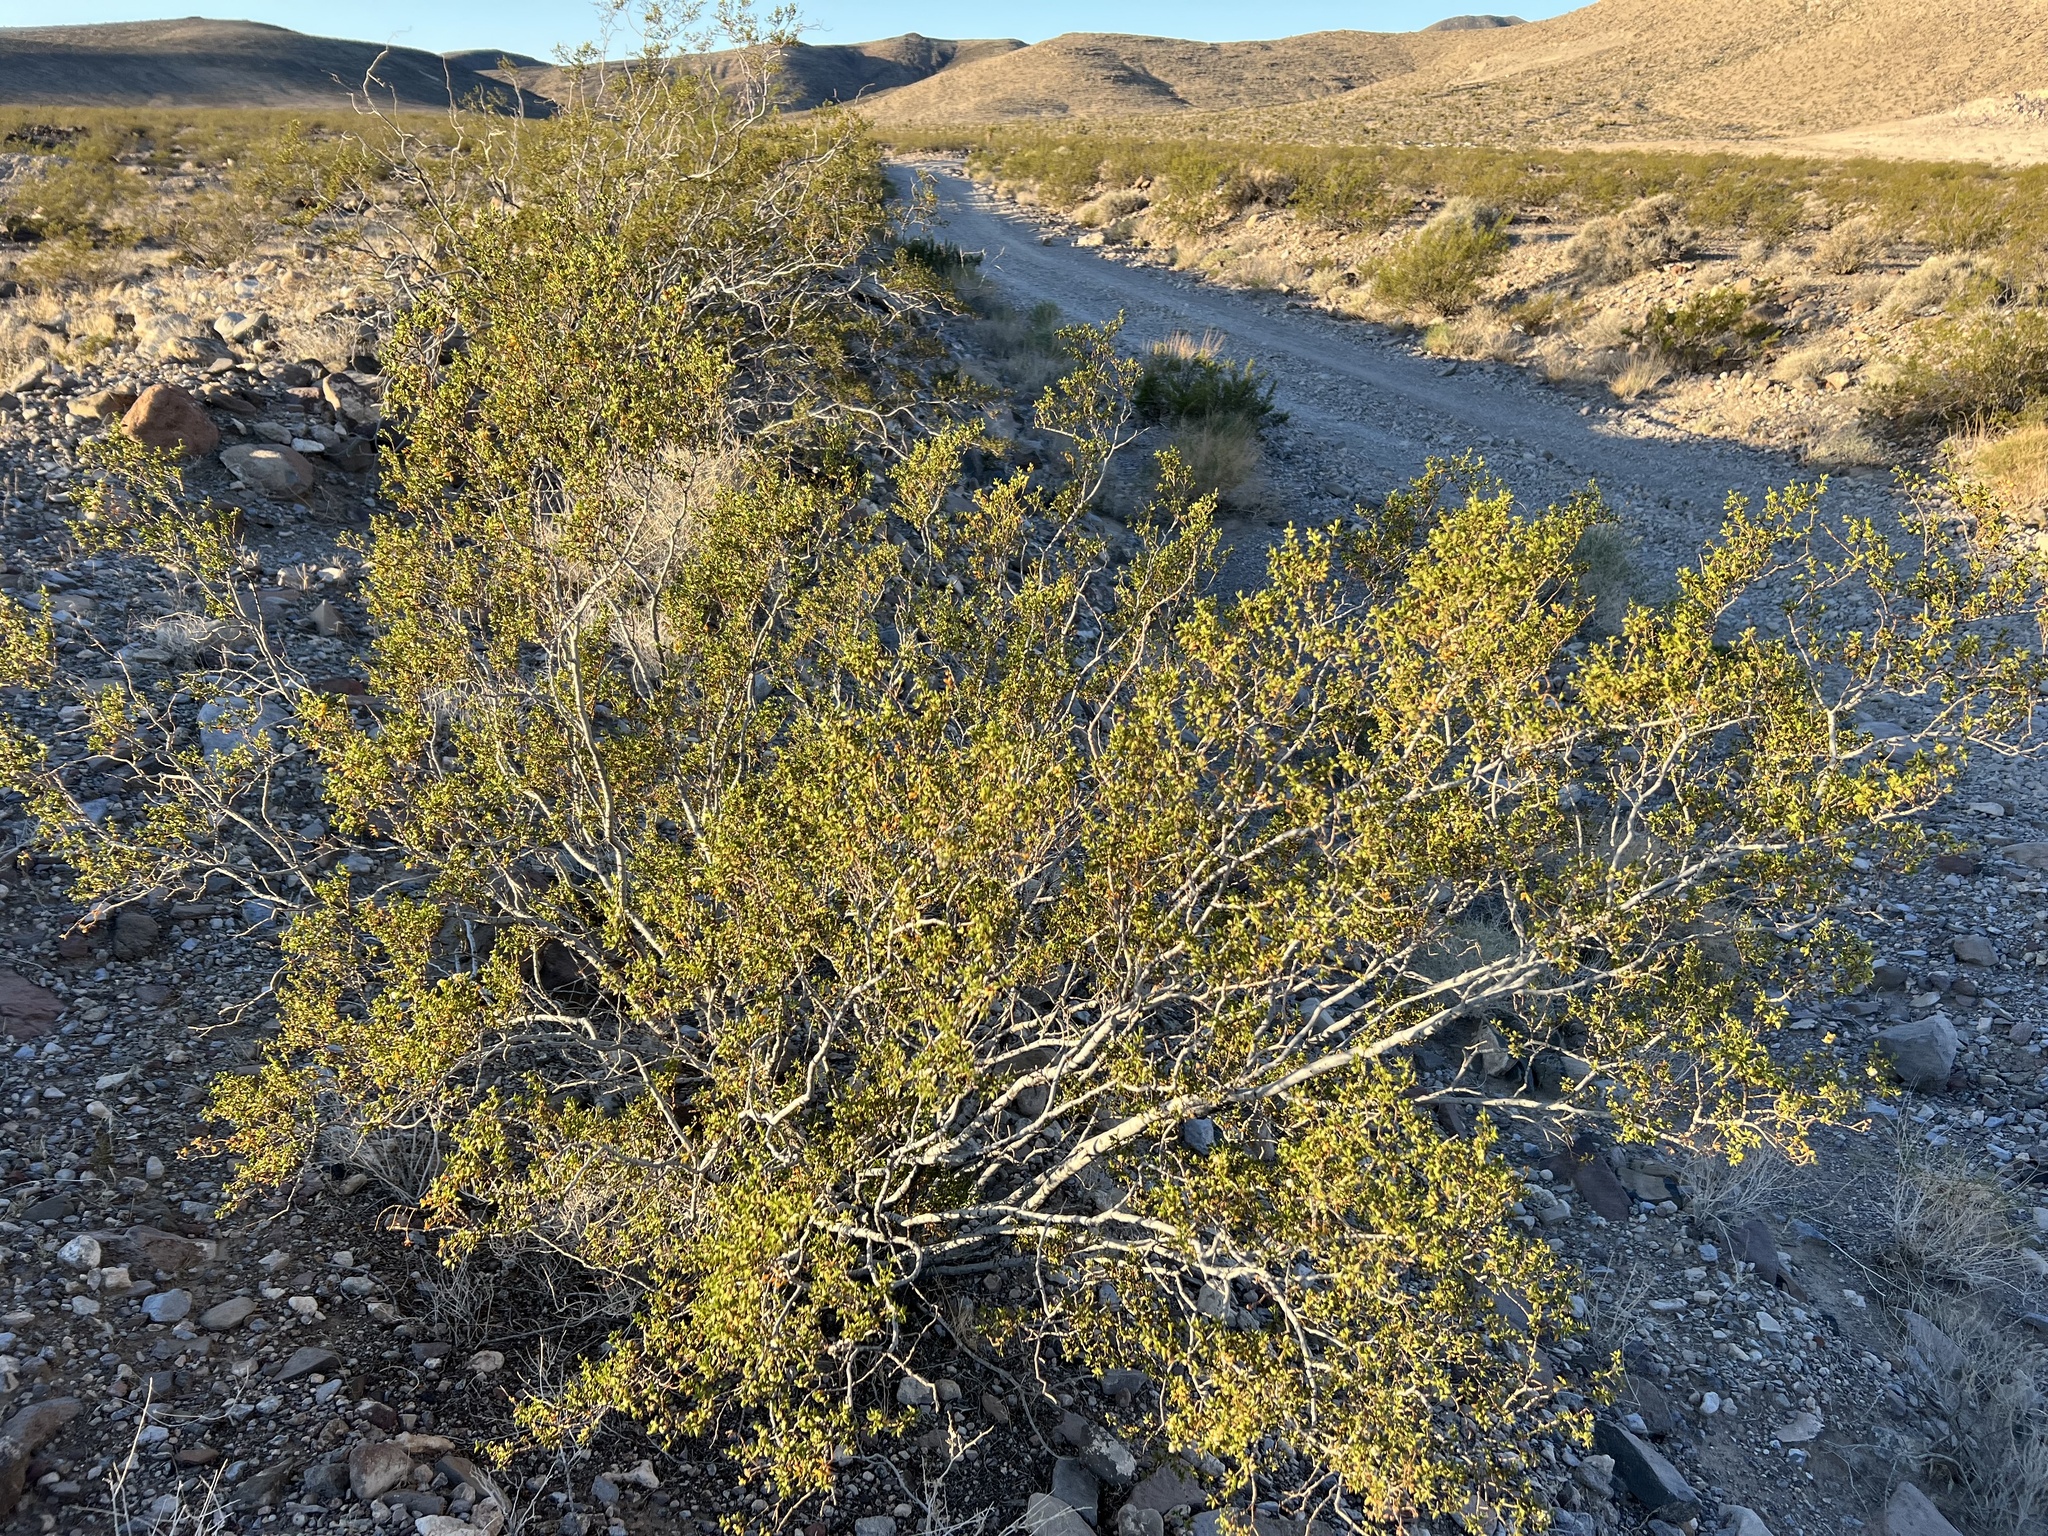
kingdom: Plantae
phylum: Tracheophyta
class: Magnoliopsida
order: Zygophyllales
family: Zygophyllaceae
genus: Larrea
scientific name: Larrea tridentata
